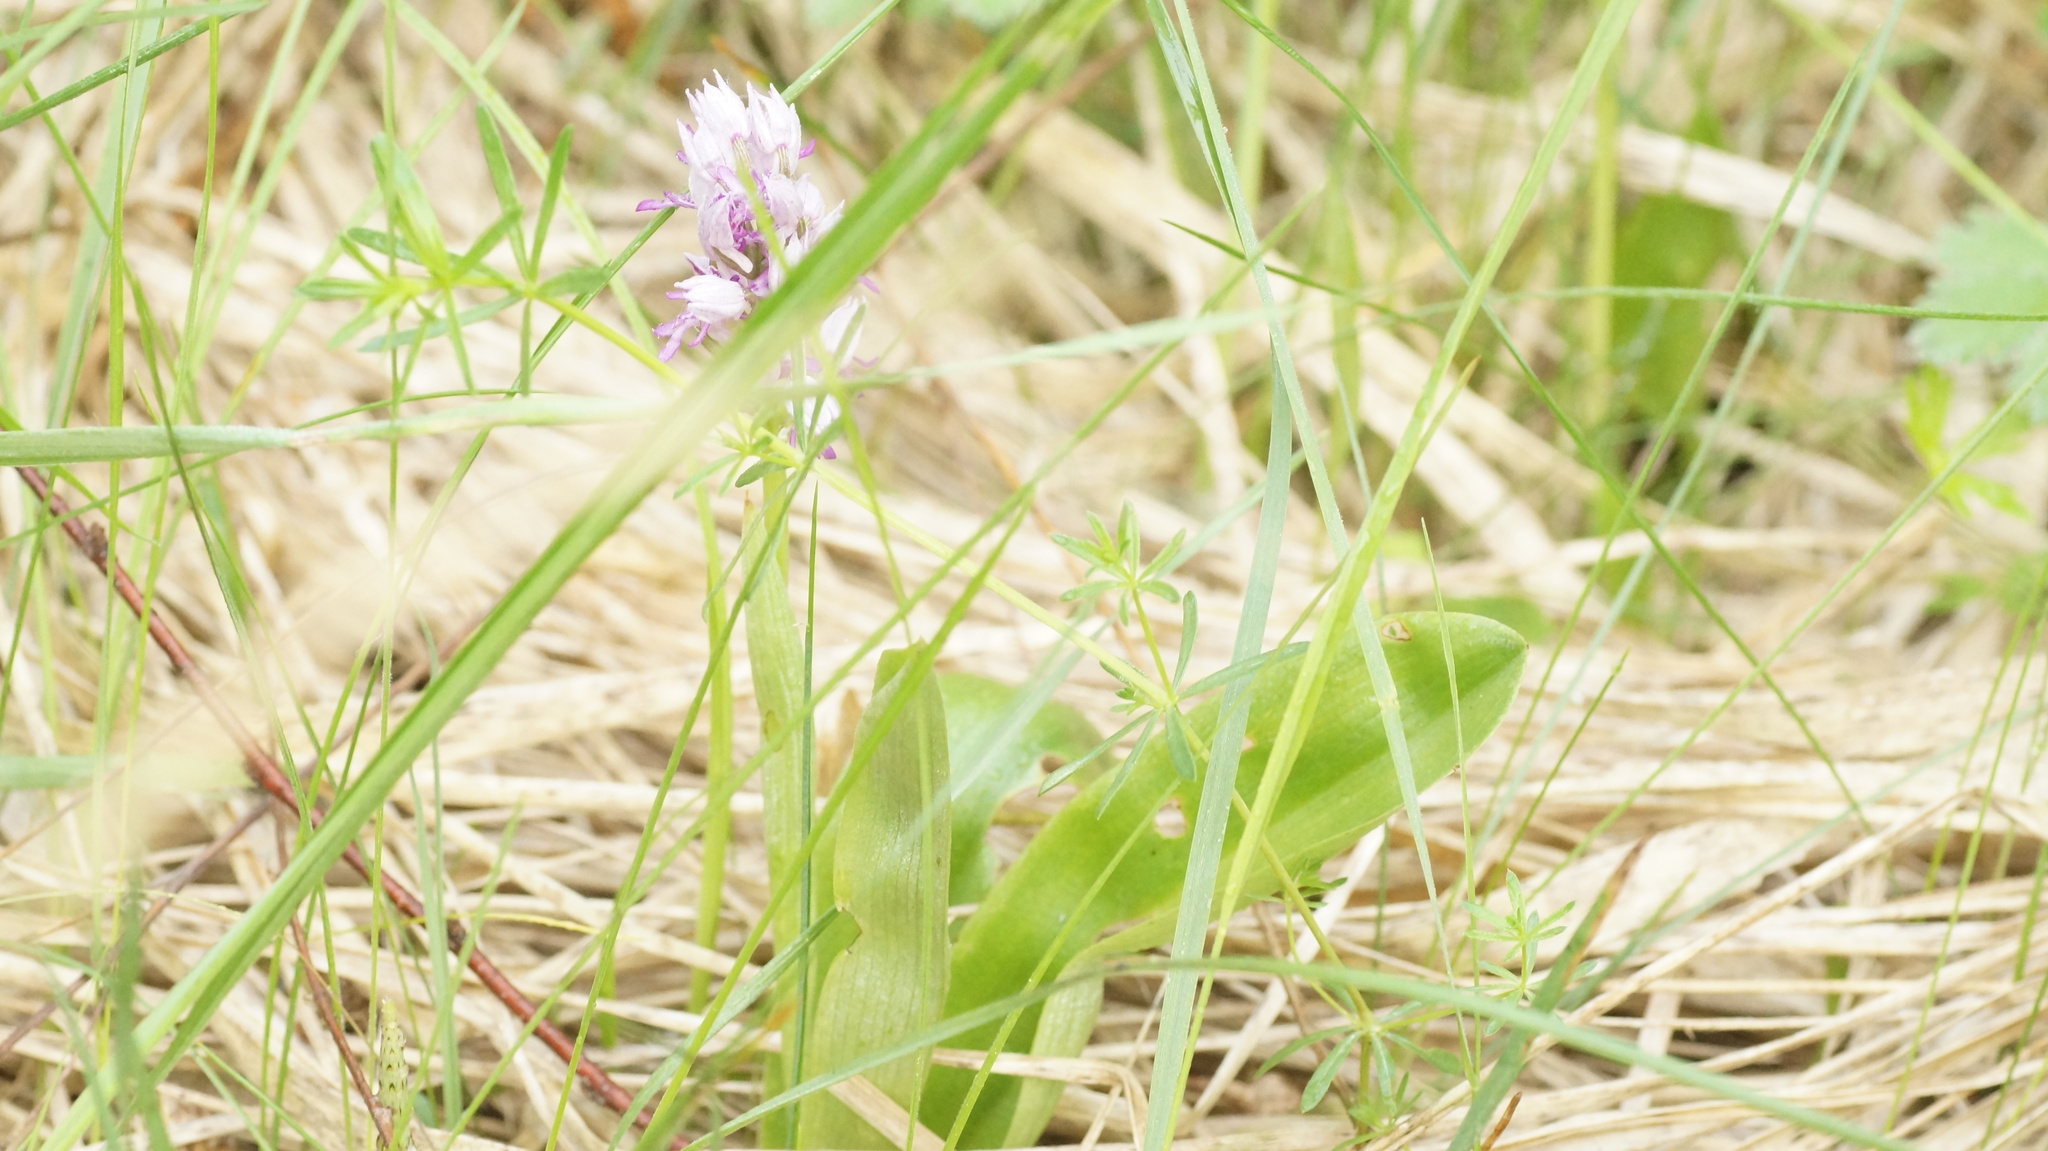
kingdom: Plantae
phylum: Tracheophyta
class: Liliopsida
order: Asparagales
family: Orchidaceae
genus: Orchis
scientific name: Orchis militaris
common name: Military orchid
